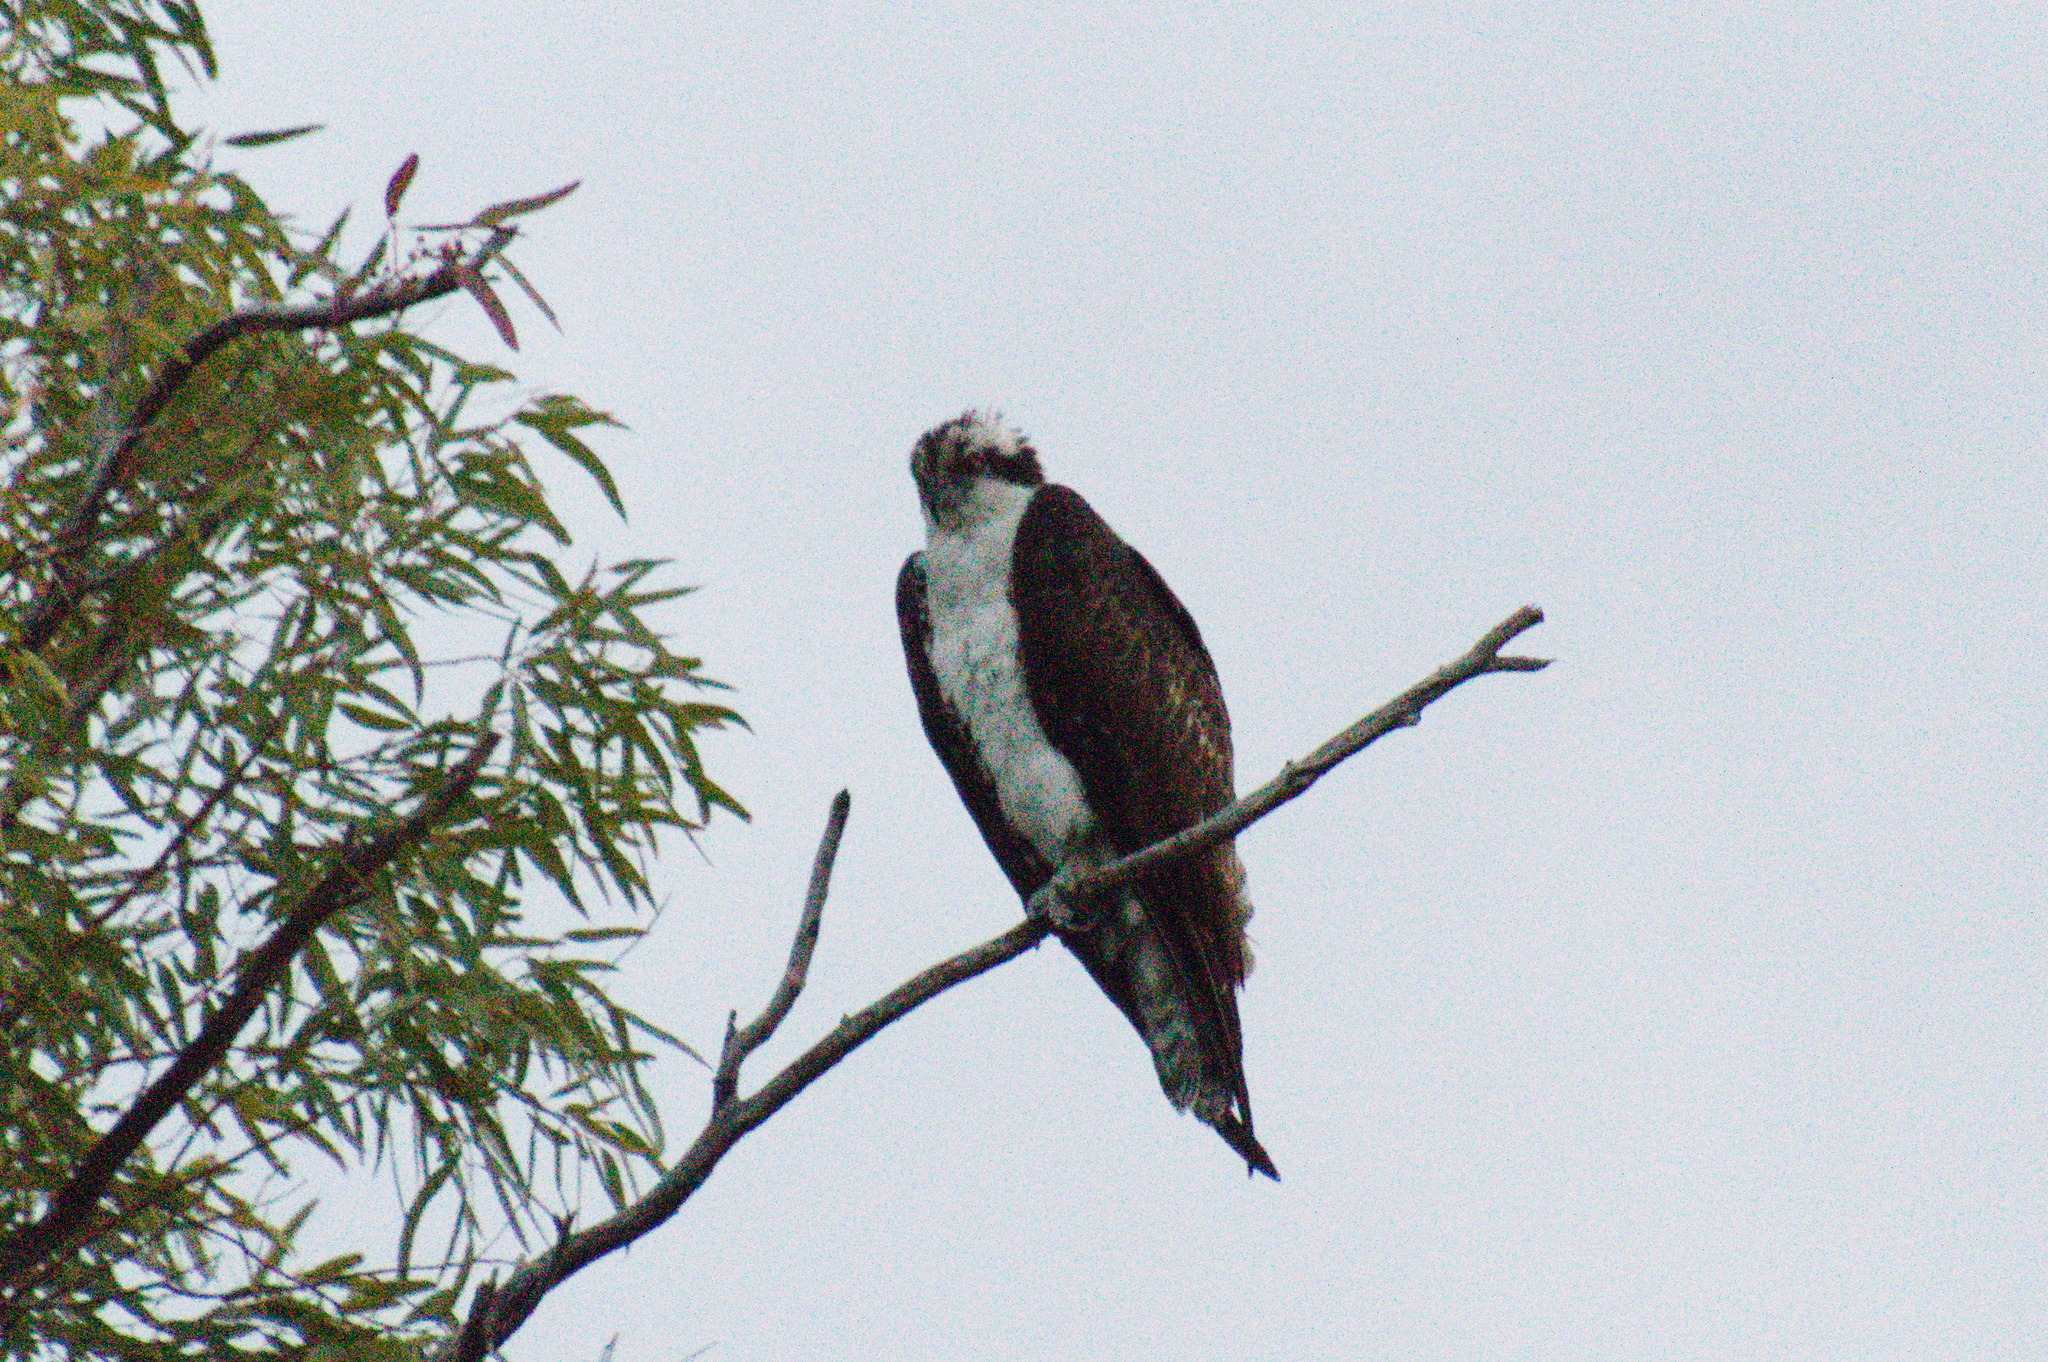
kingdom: Animalia
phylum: Chordata
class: Aves
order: Accipitriformes
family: Pandionidae
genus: Pandion
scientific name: Pandion haliaetus
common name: Osprey
